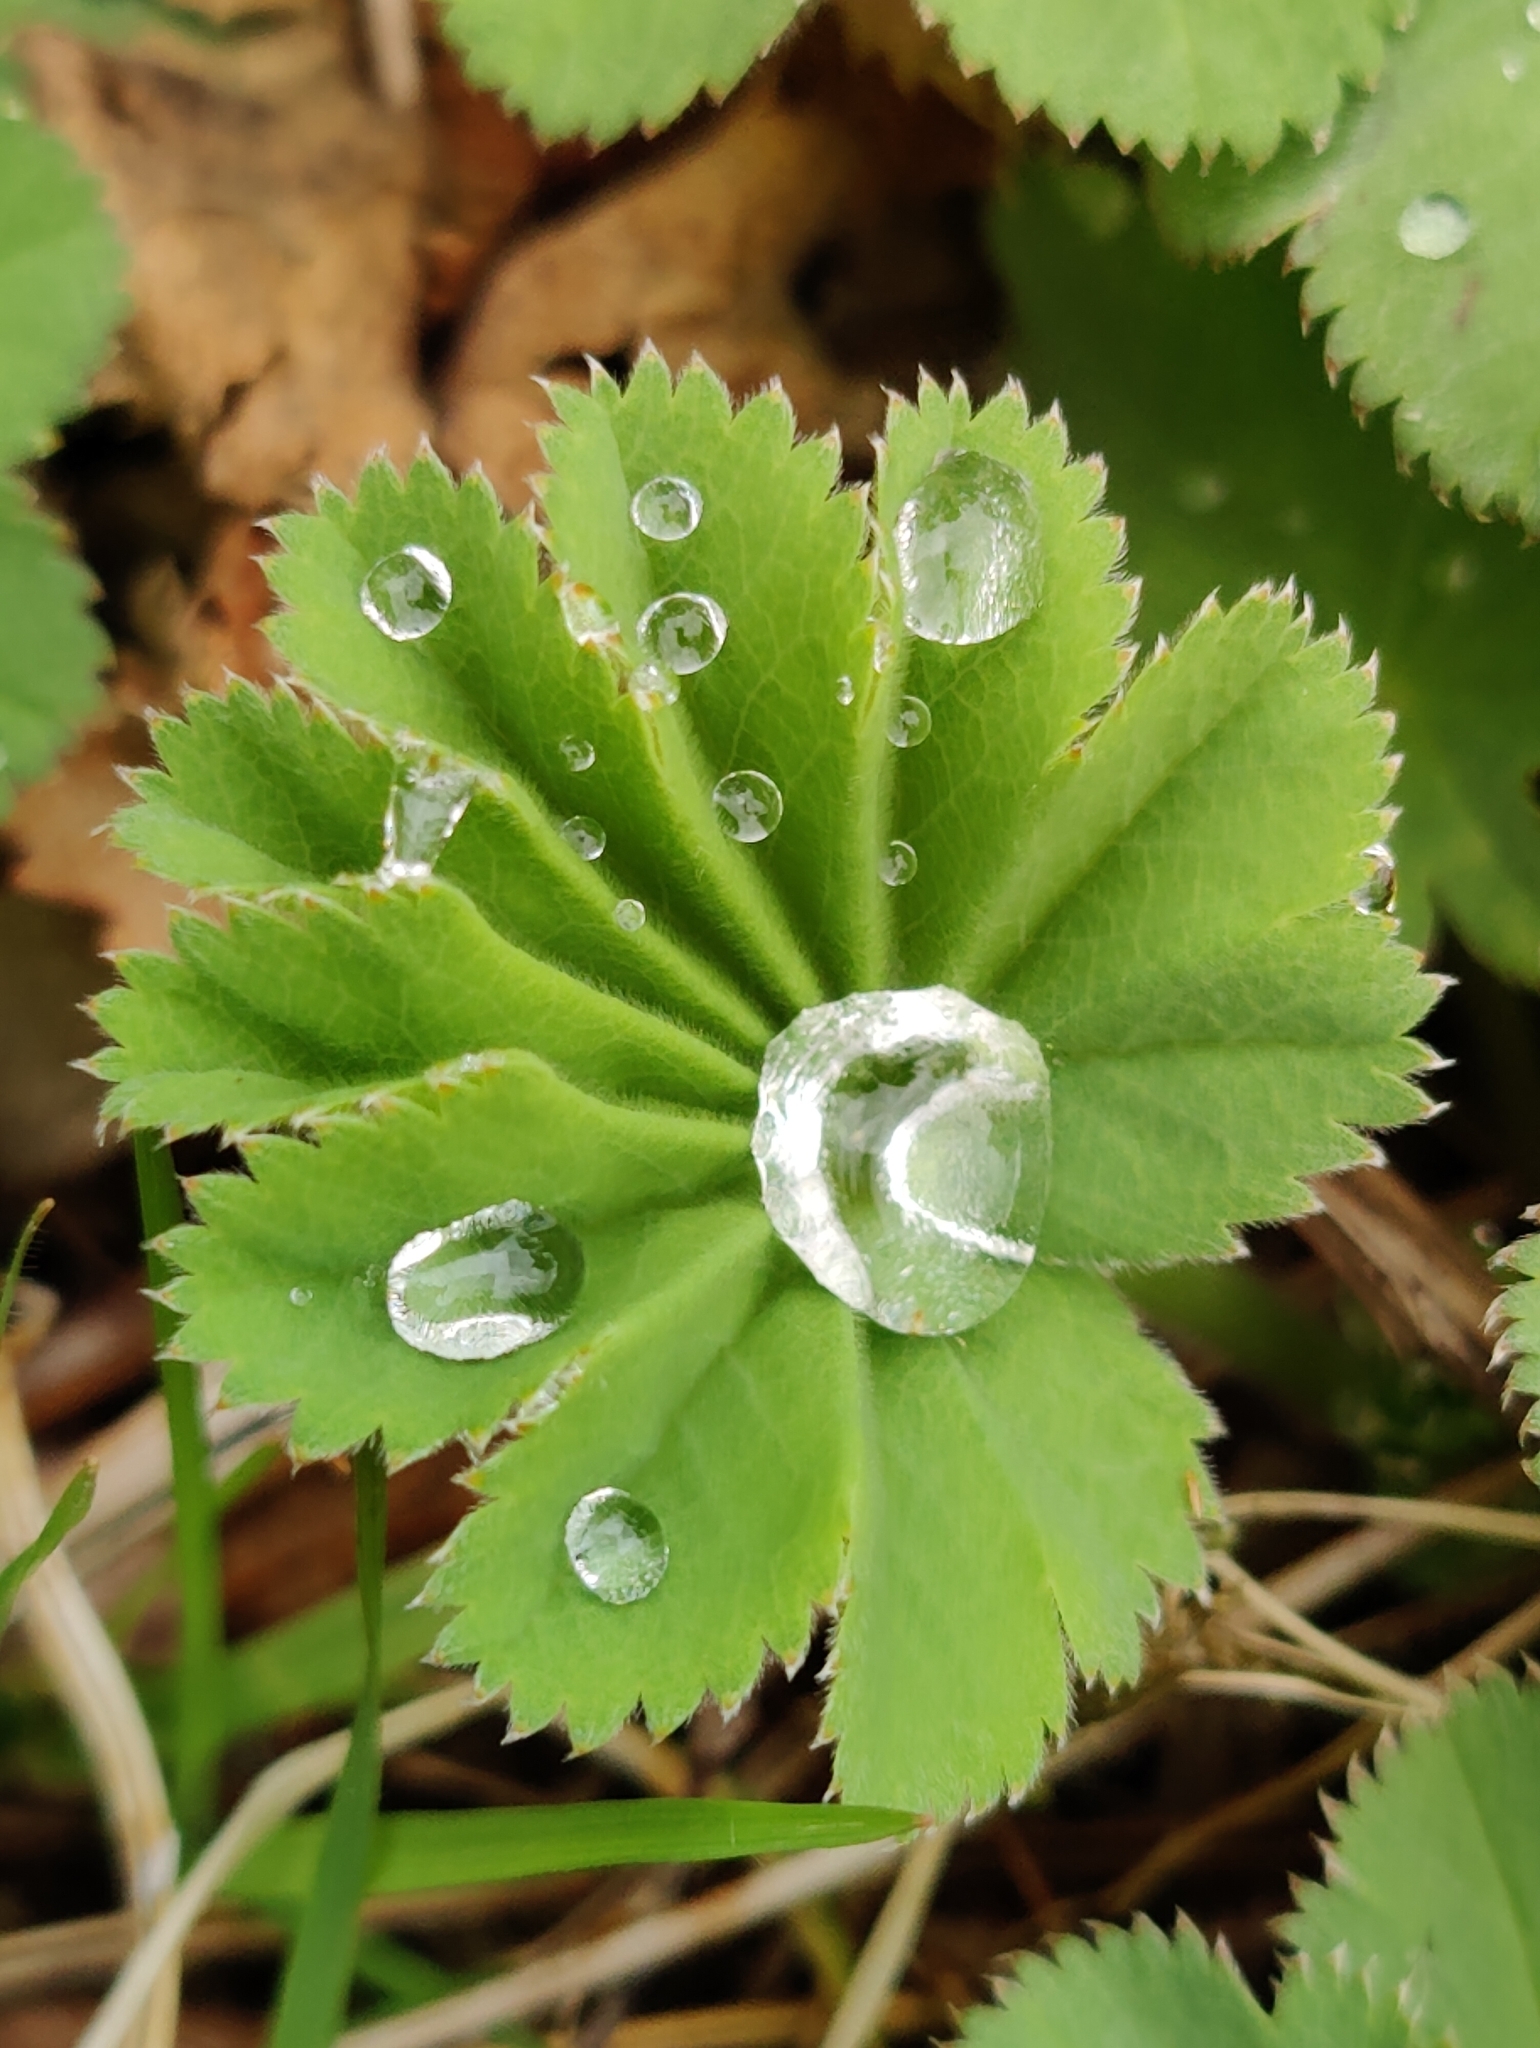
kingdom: Plantae
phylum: Tracheophyta
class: Magnoliopsida
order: Rosales
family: Rosaceae
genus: Alchemilla
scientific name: Alchemilla vulgaris
